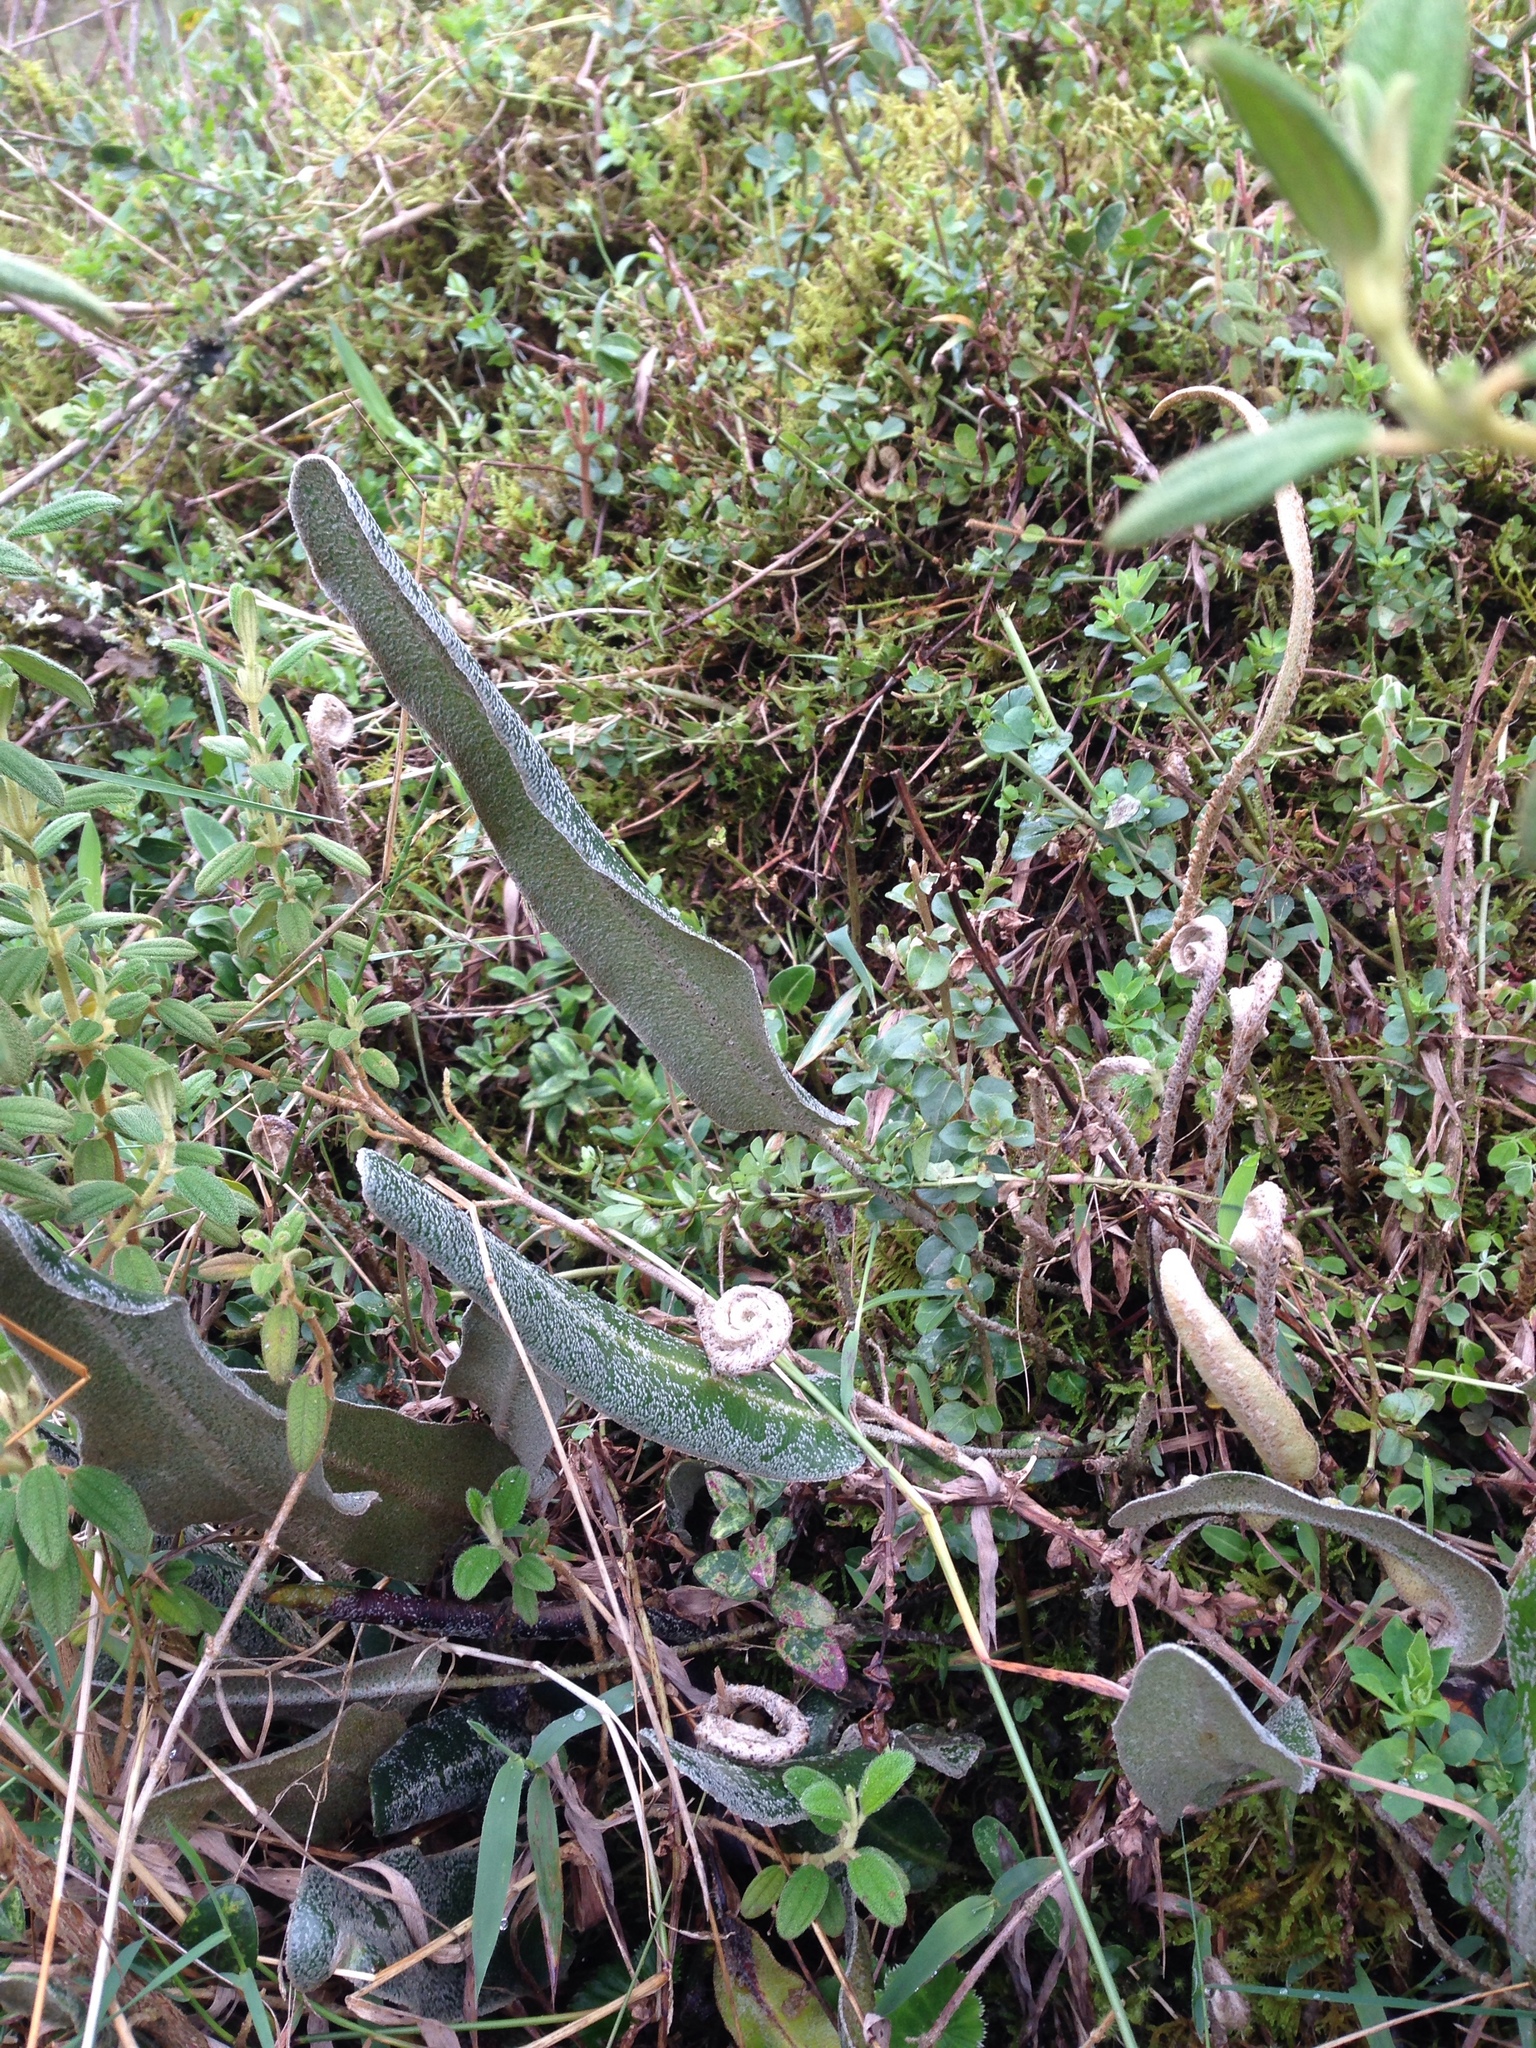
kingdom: Plantae
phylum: Tracheophyta
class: Polypodiopsida
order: Polypodiales
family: Dryopteridaceae
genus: Elaphoglossum
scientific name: Elaphoglossum engelii
